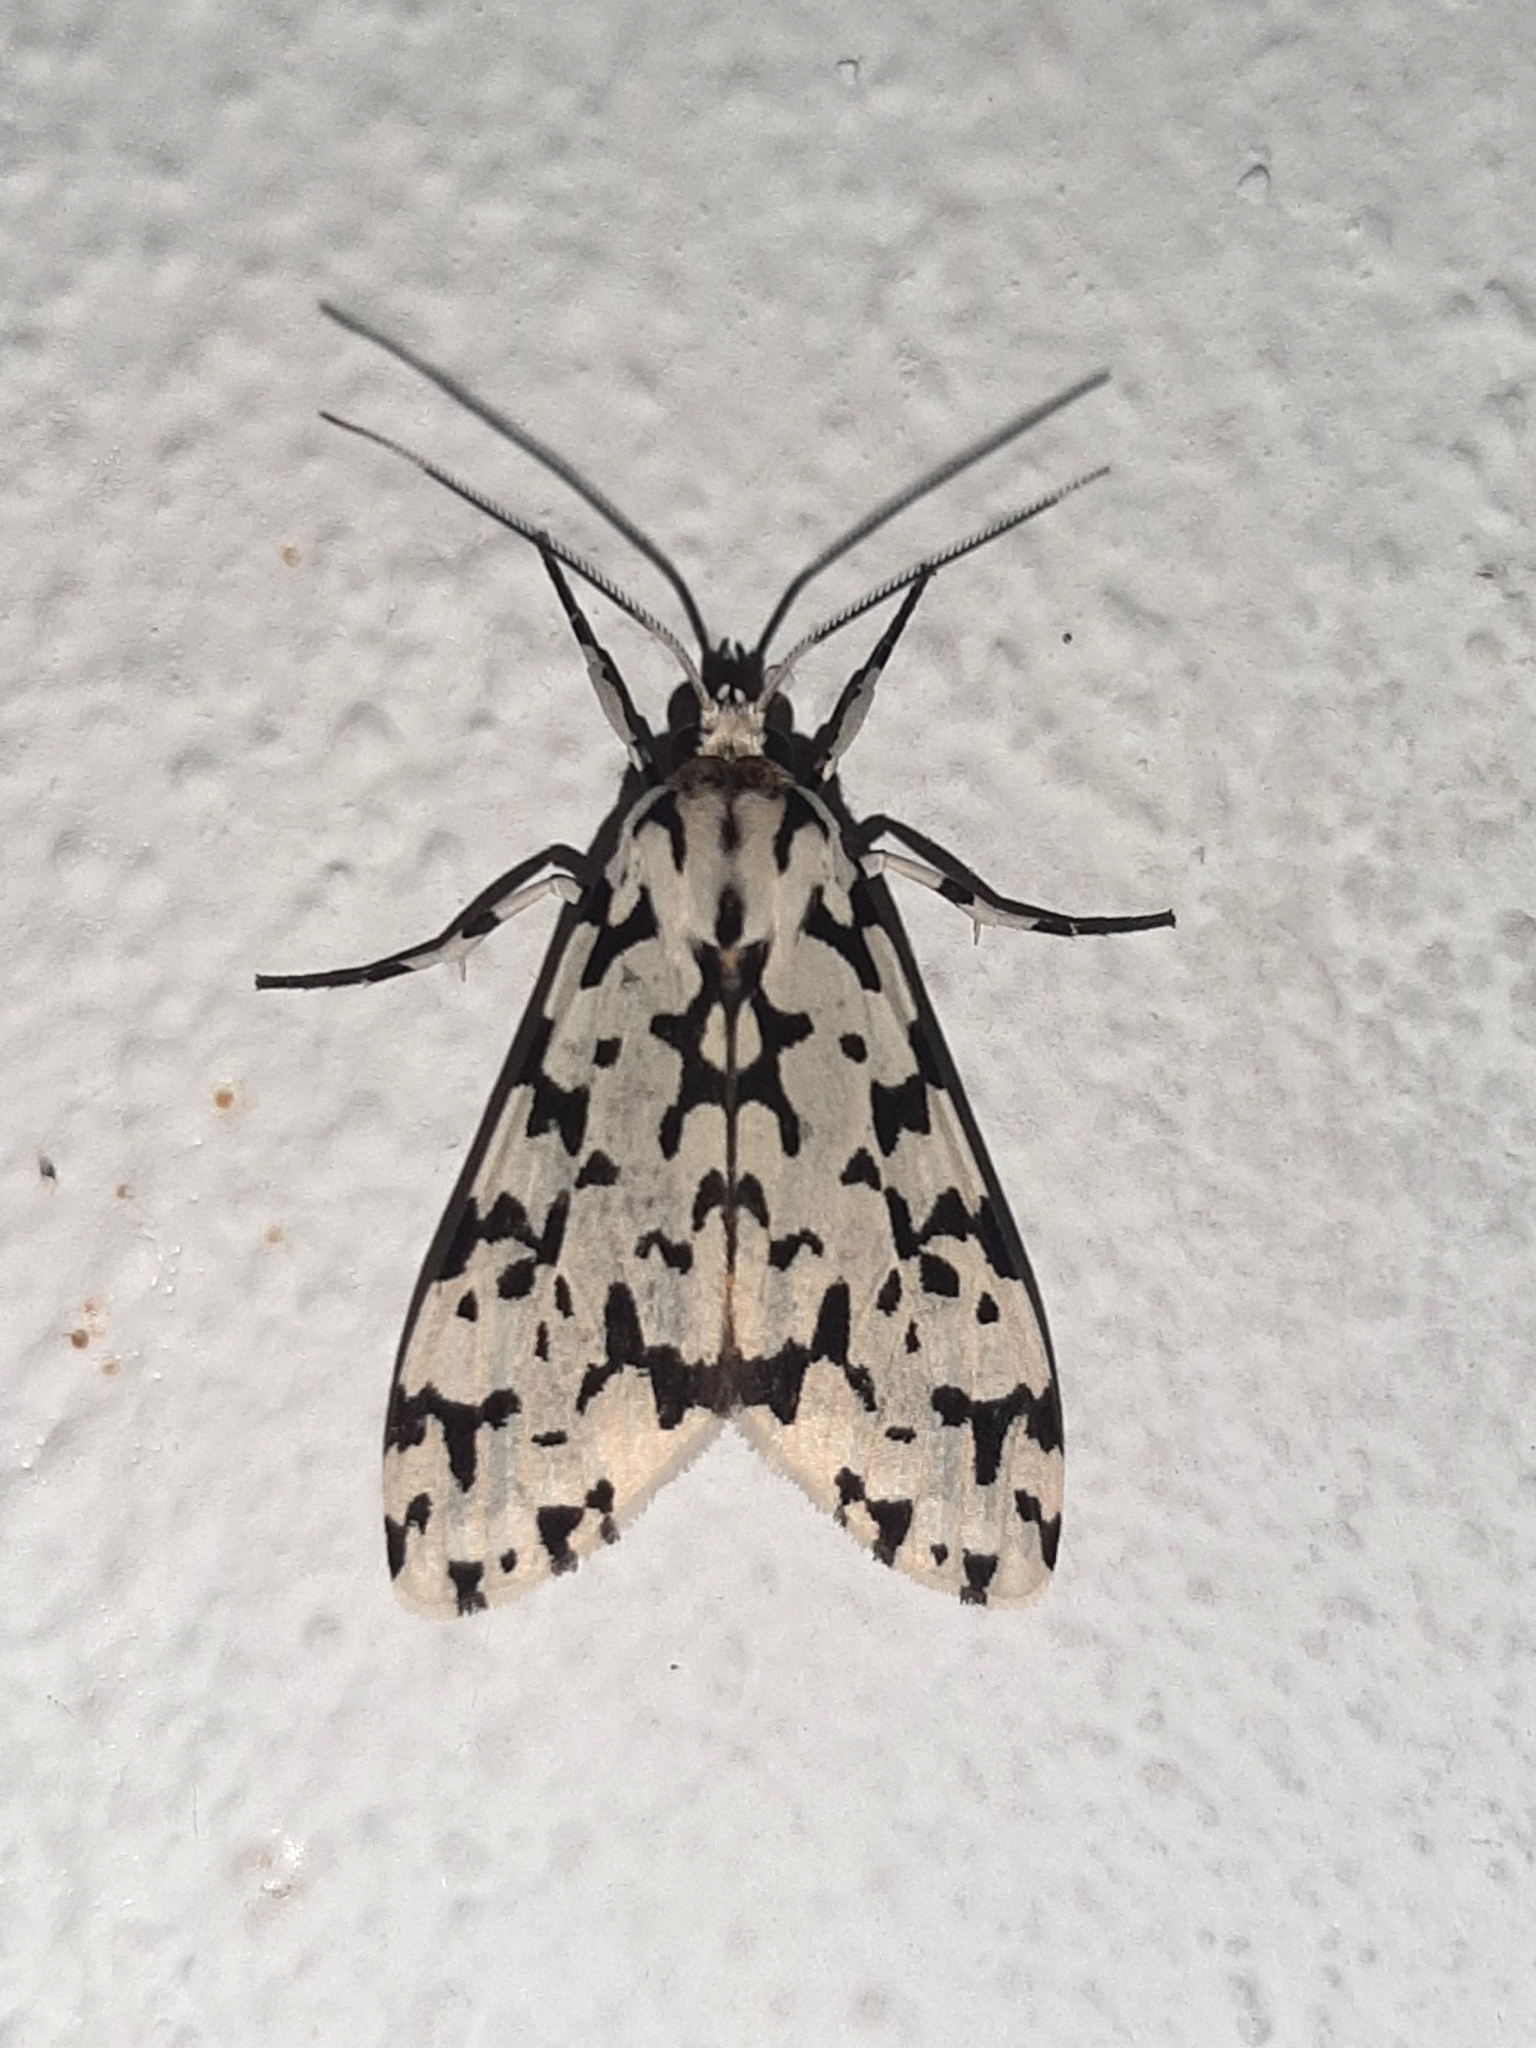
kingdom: Animalia
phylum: Arthropoda
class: Insecta
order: Lepidoptera
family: Erebidae
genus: Eucereon
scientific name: Eucereon tigrata
